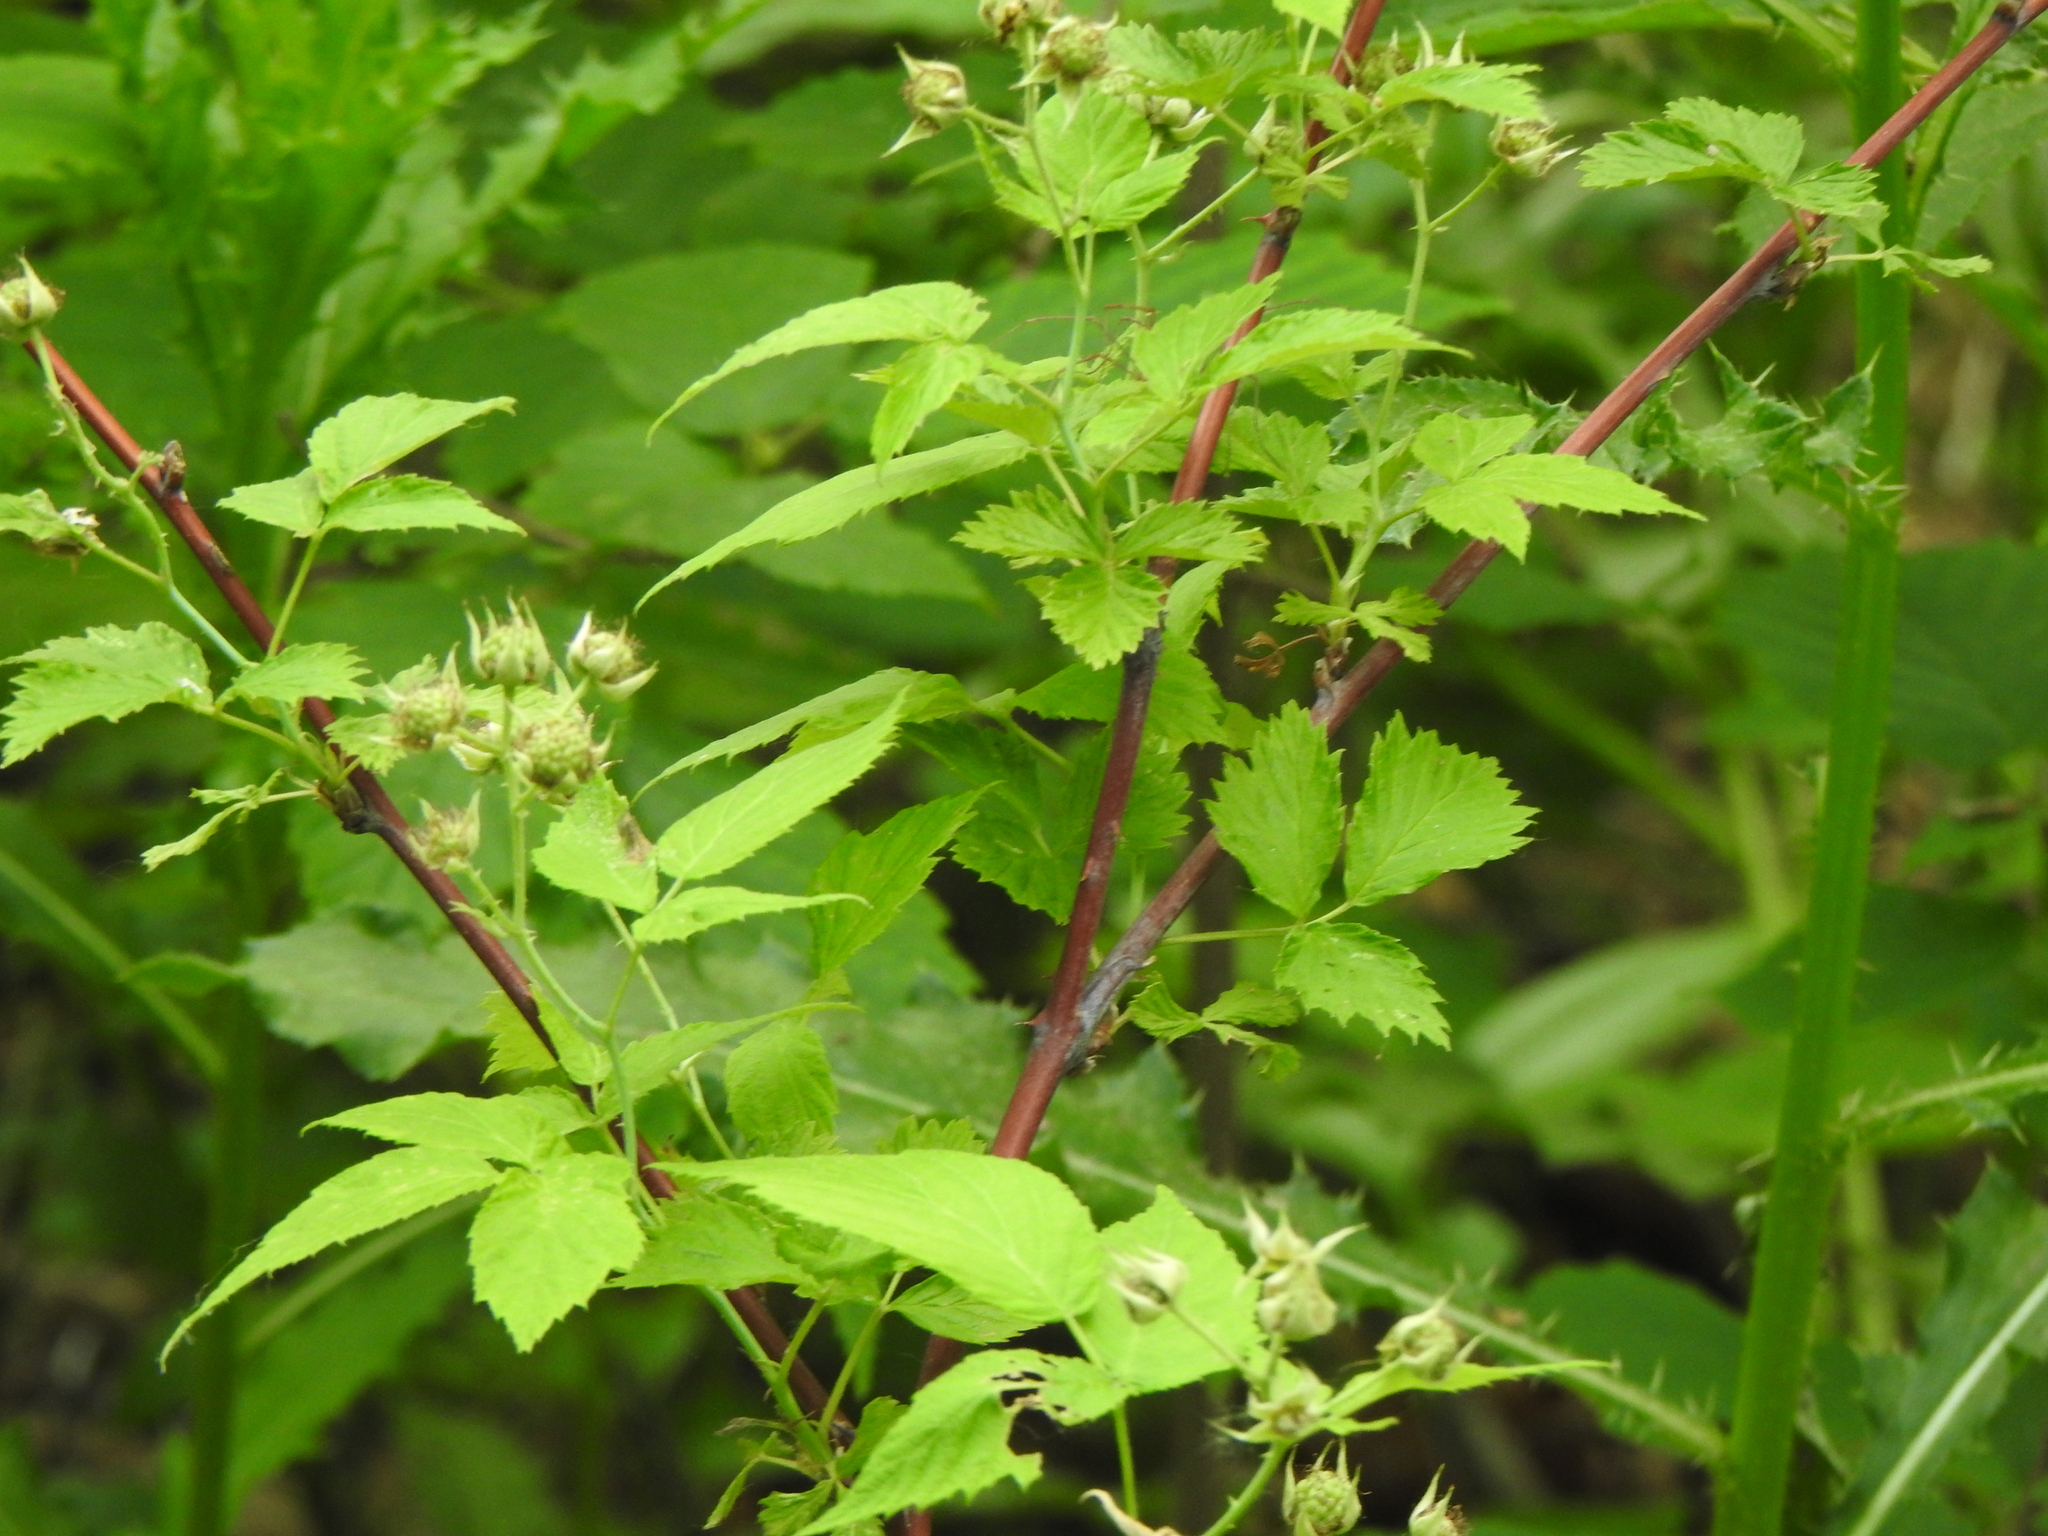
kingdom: Plantae
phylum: Tracheophyta
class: Magnoliopsida
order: Rosales
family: Rosaceae
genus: Rubus
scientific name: Rubus occidentalis
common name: Black raspberry
